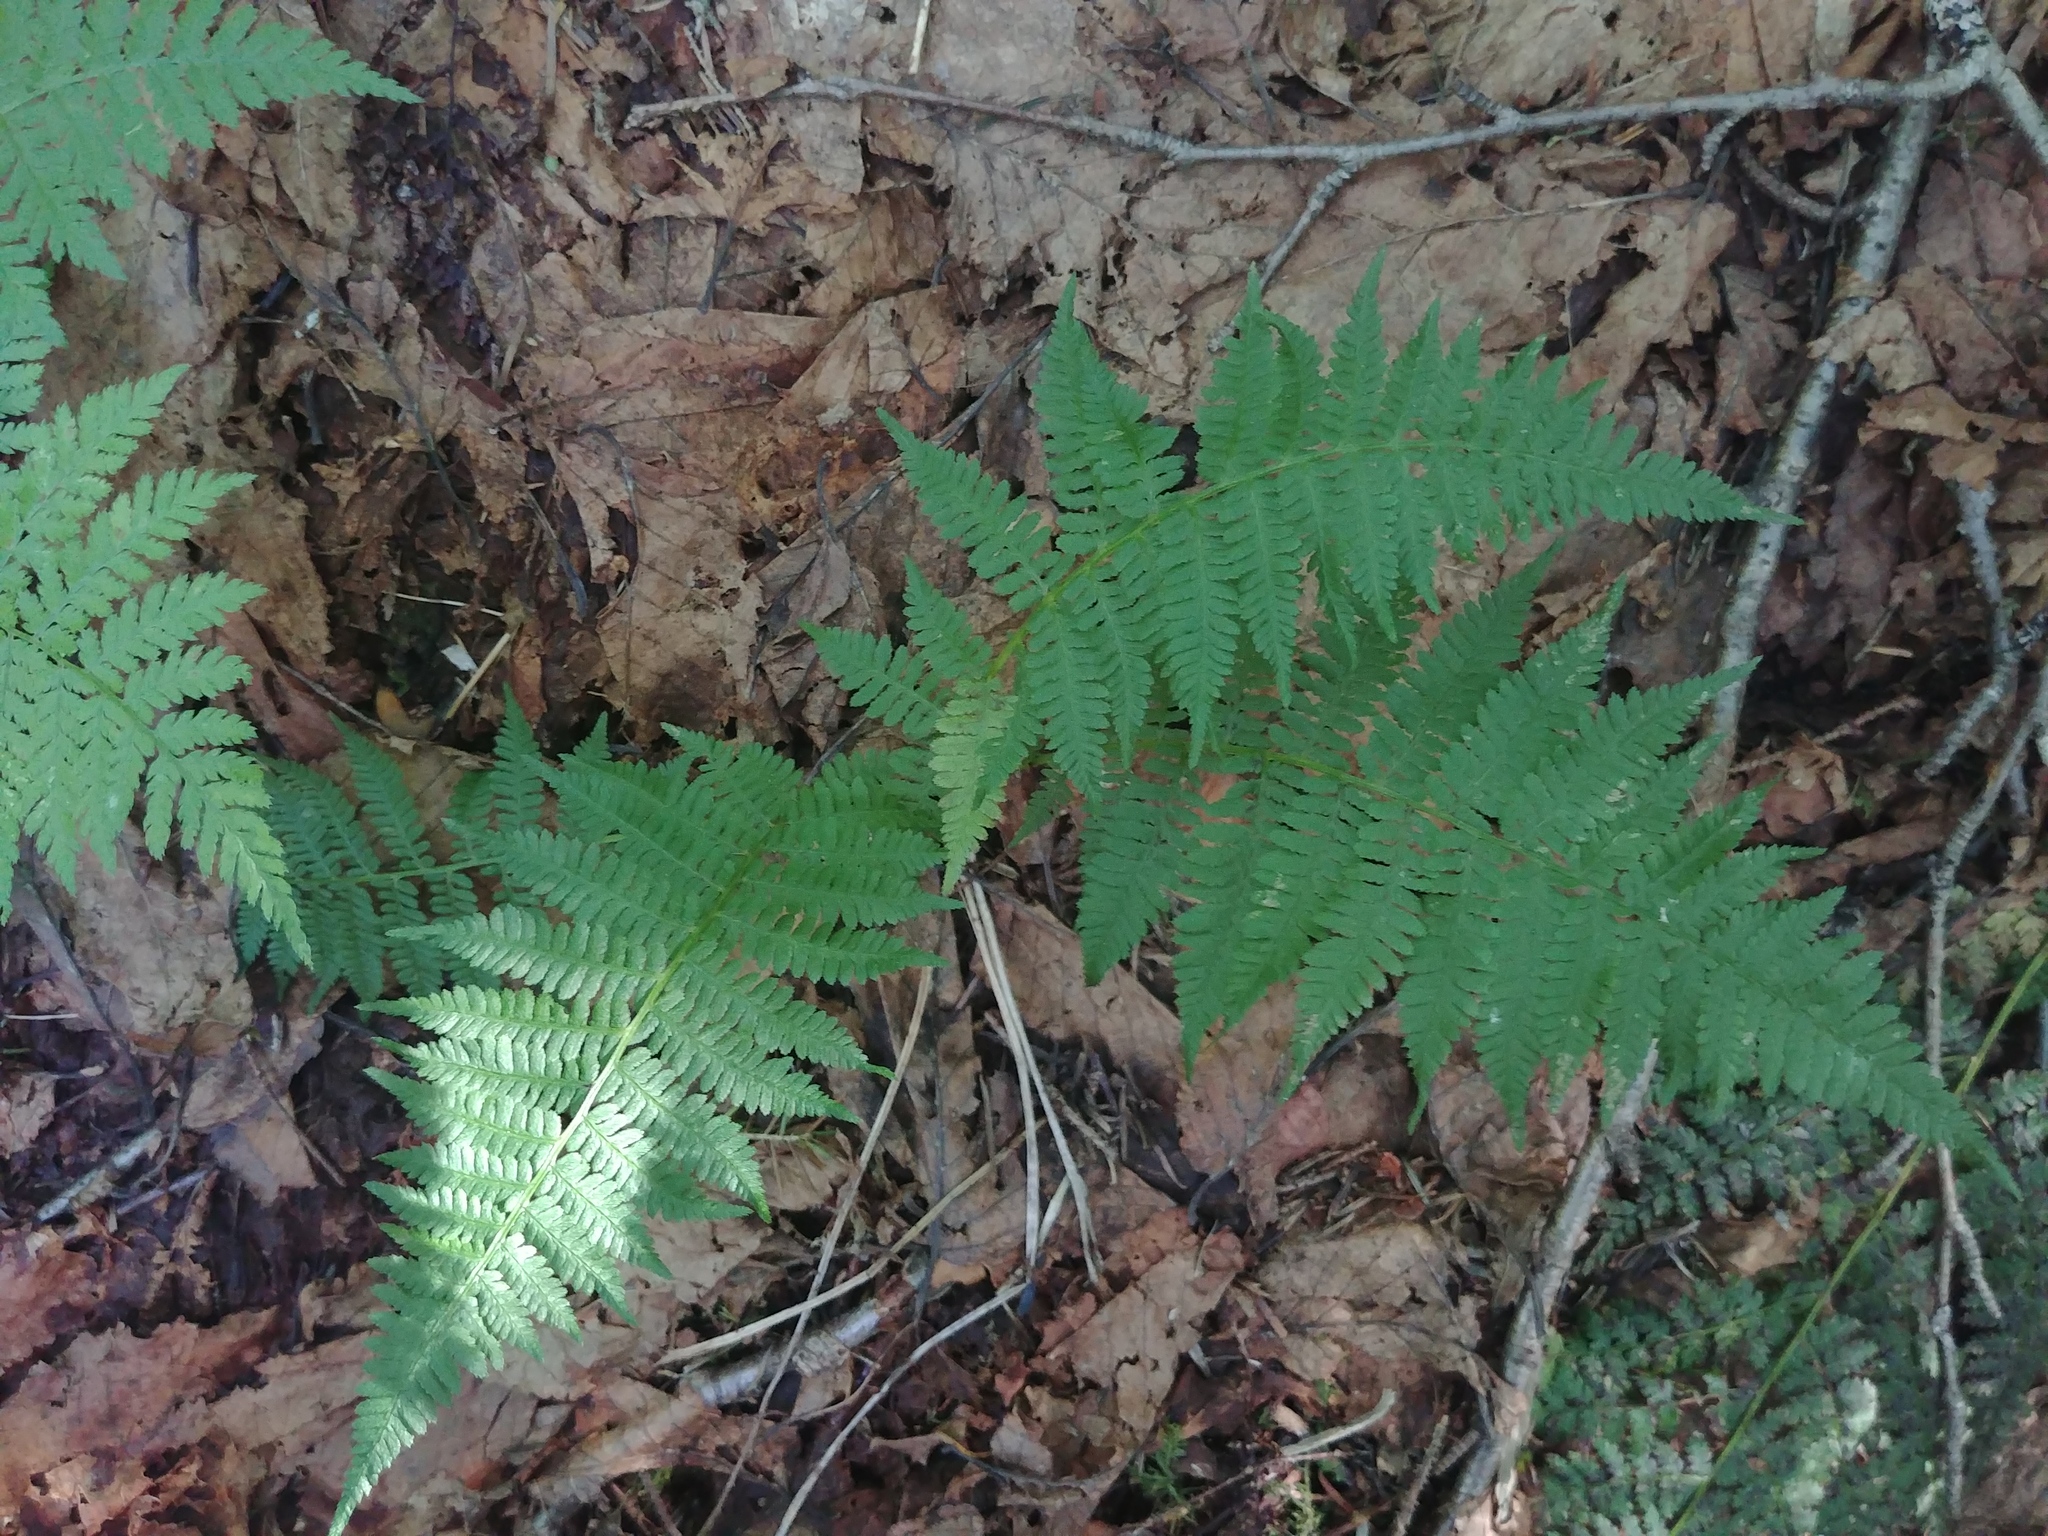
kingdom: Plantae
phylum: Tracheophyta
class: Polypodiopsida
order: Polypodiales
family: Athyriaceae
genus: Athyrium
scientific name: Athyrium angustum
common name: Northern lady fern
